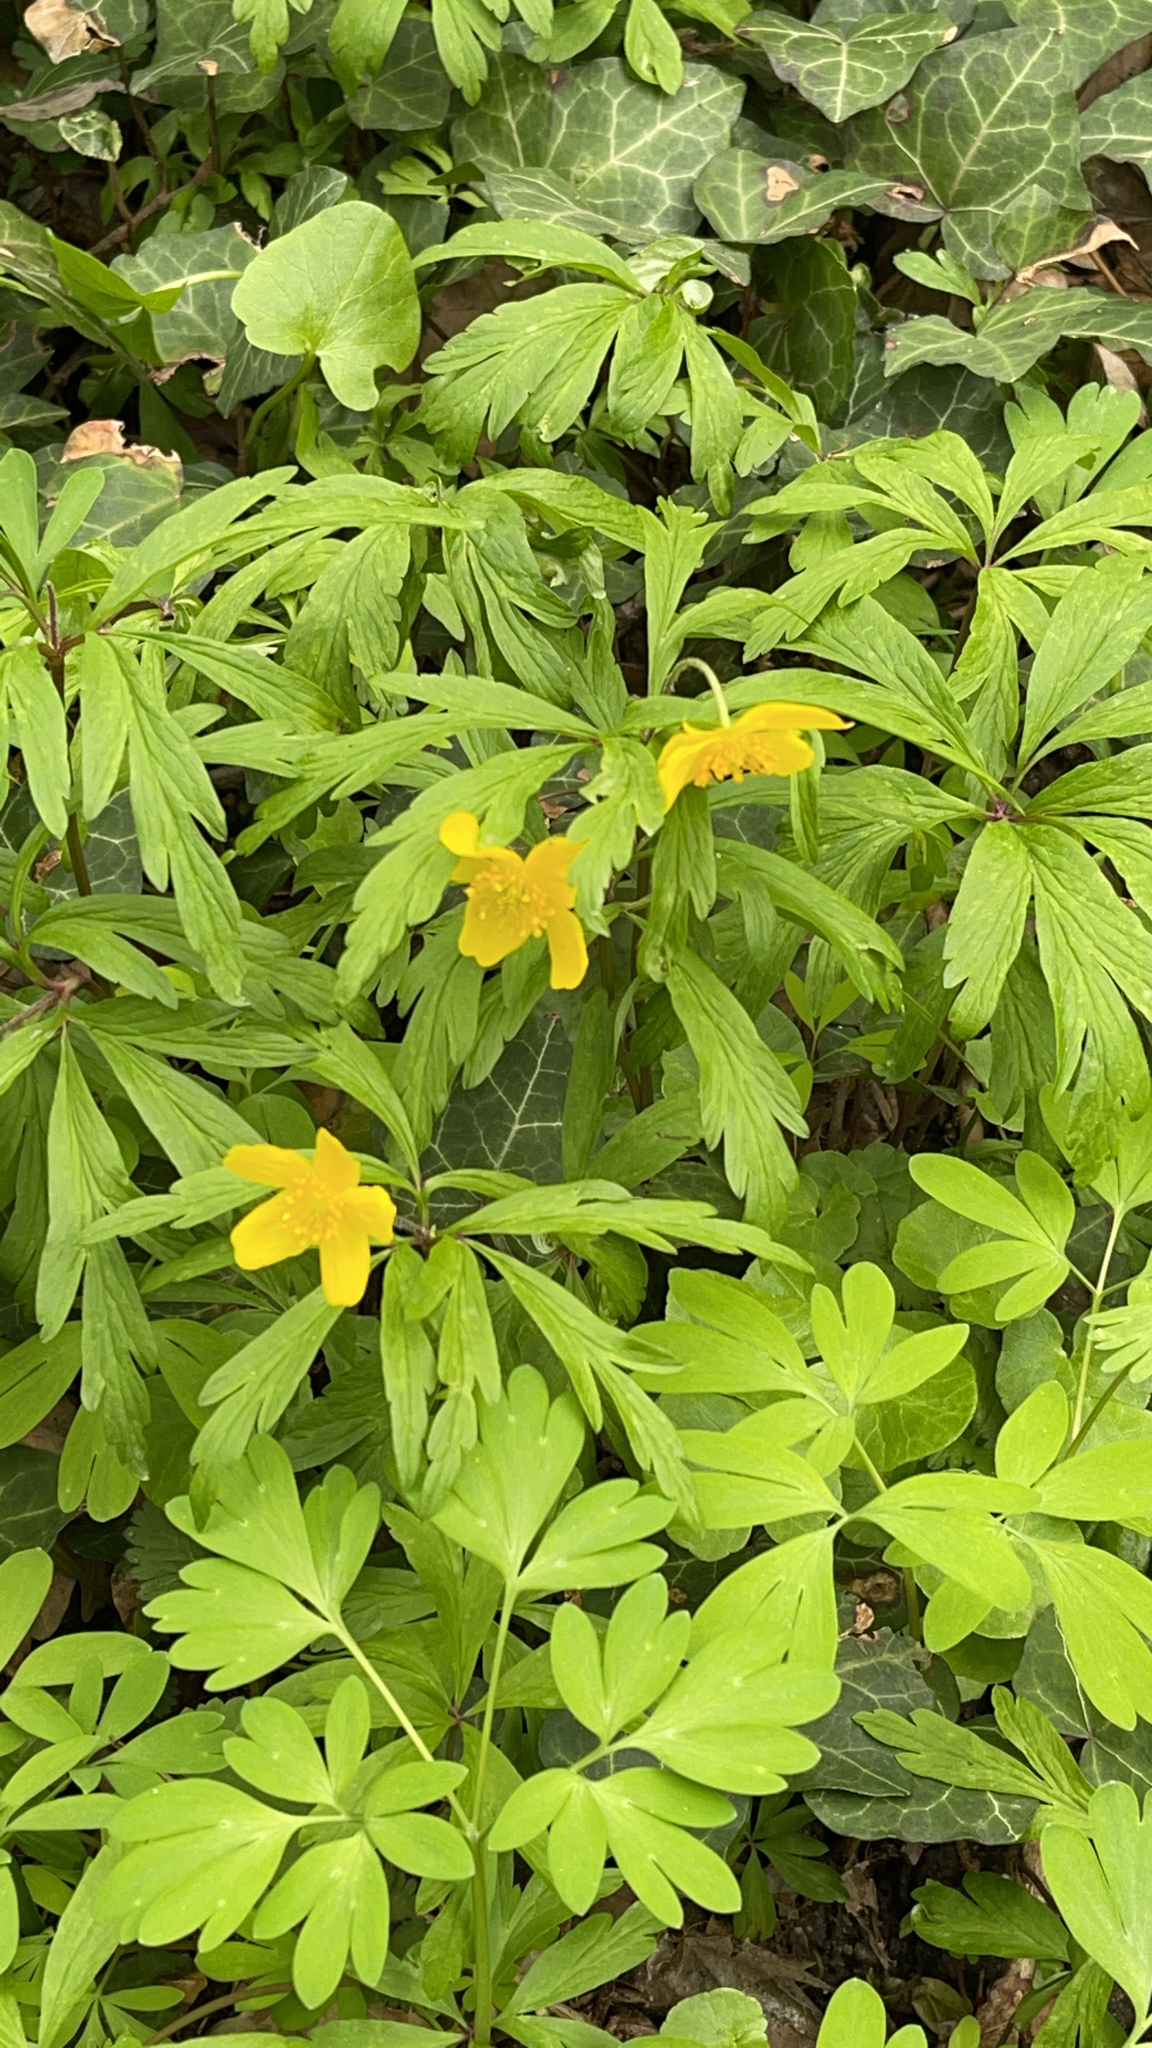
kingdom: Plantae
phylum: Tracheophyta
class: Magnoliopsida
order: Ranunculales
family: Ranunculaceae
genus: Anemone
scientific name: Anemone ranunculoides
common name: Yellow anemone
